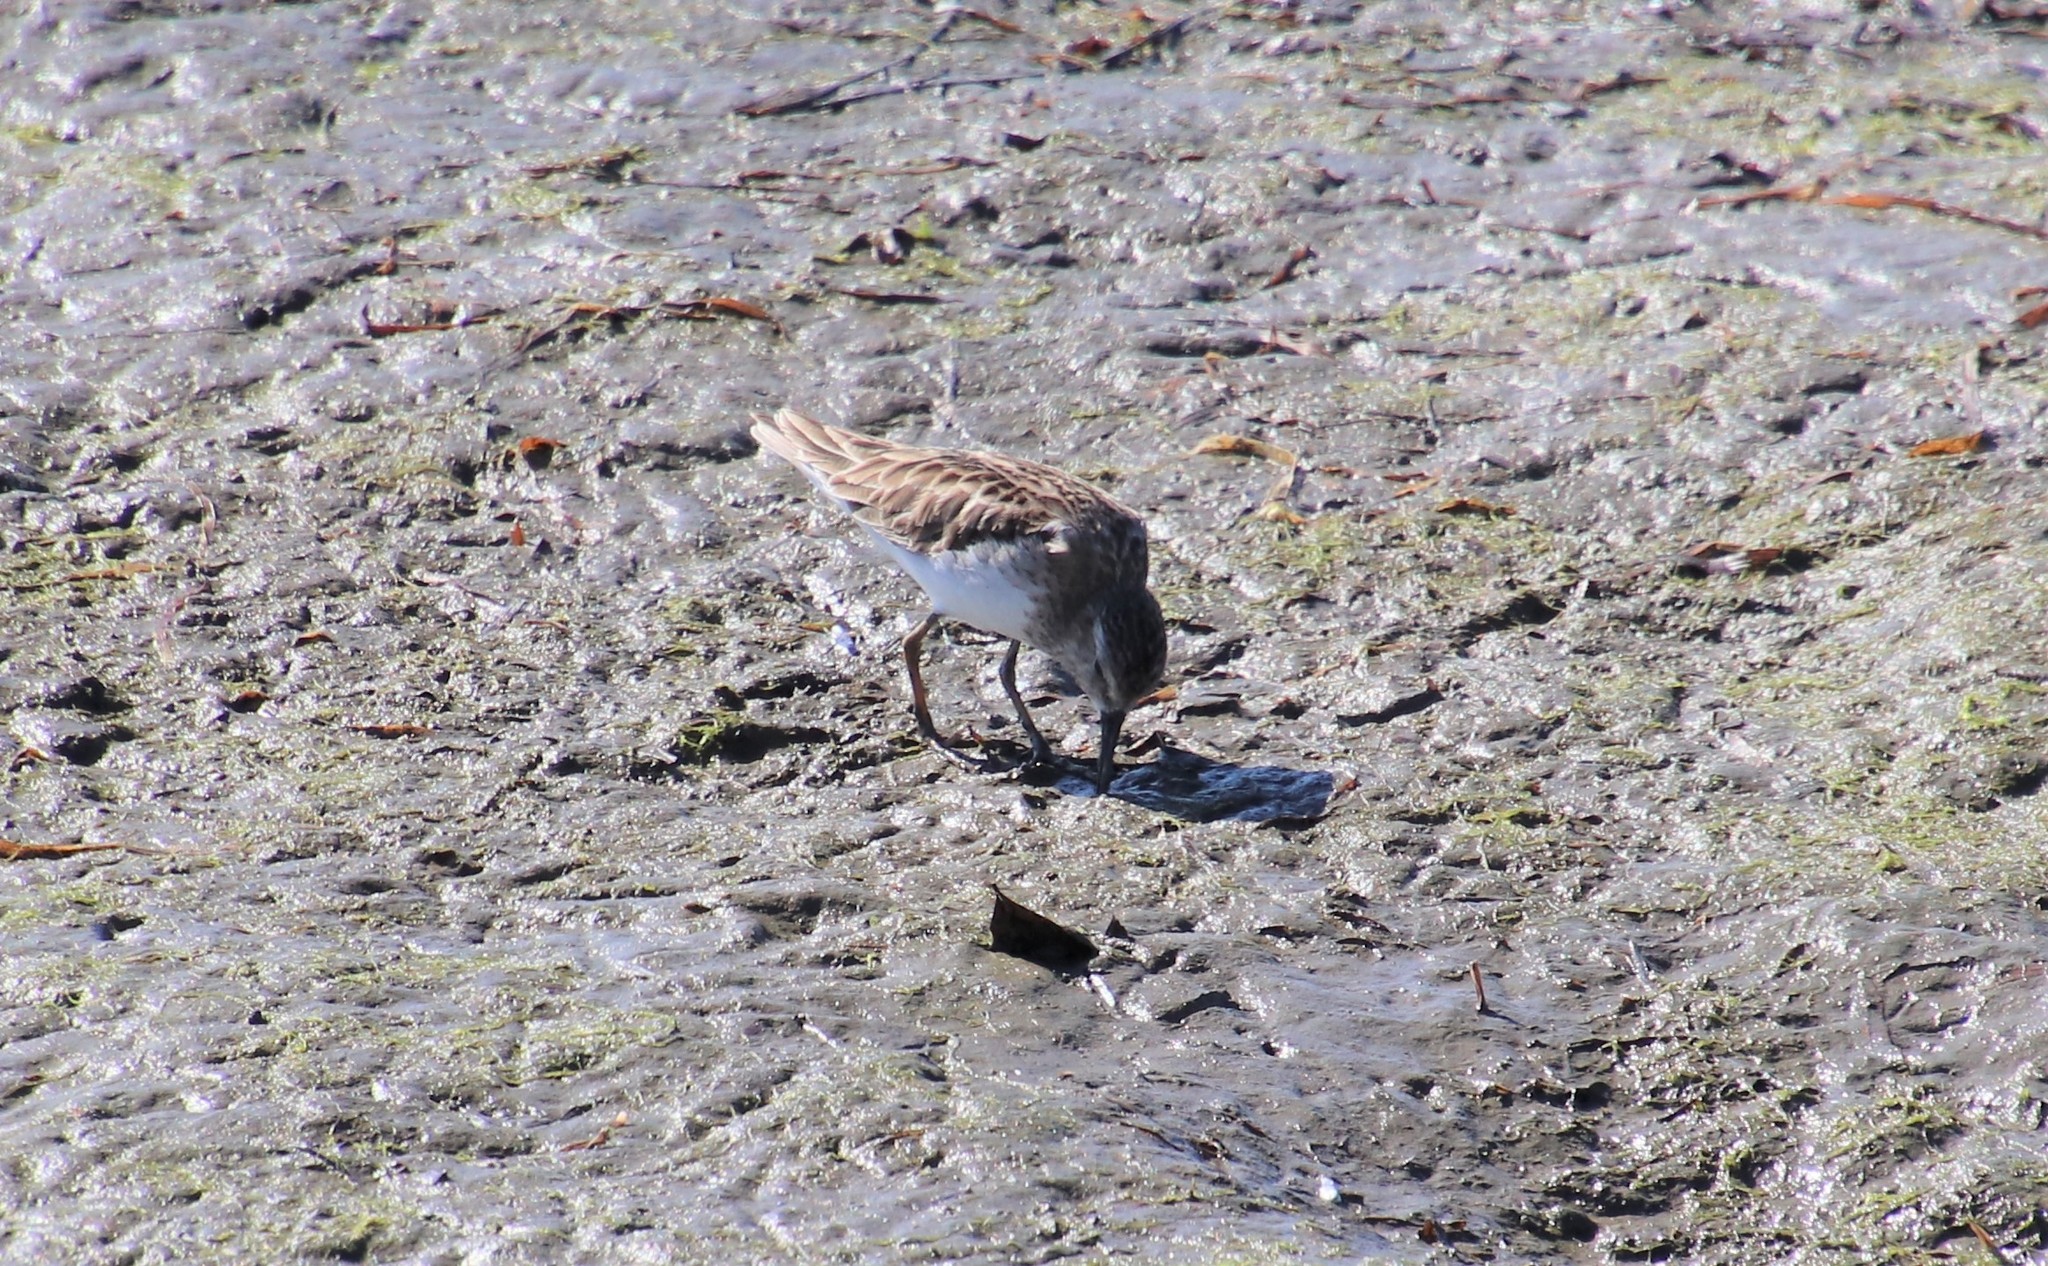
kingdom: Animalia
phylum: Chordata
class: Aves
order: Charadriiformes
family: Scolopacidae
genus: Calidris
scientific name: Calidris minutilla
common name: Least sandpiper
